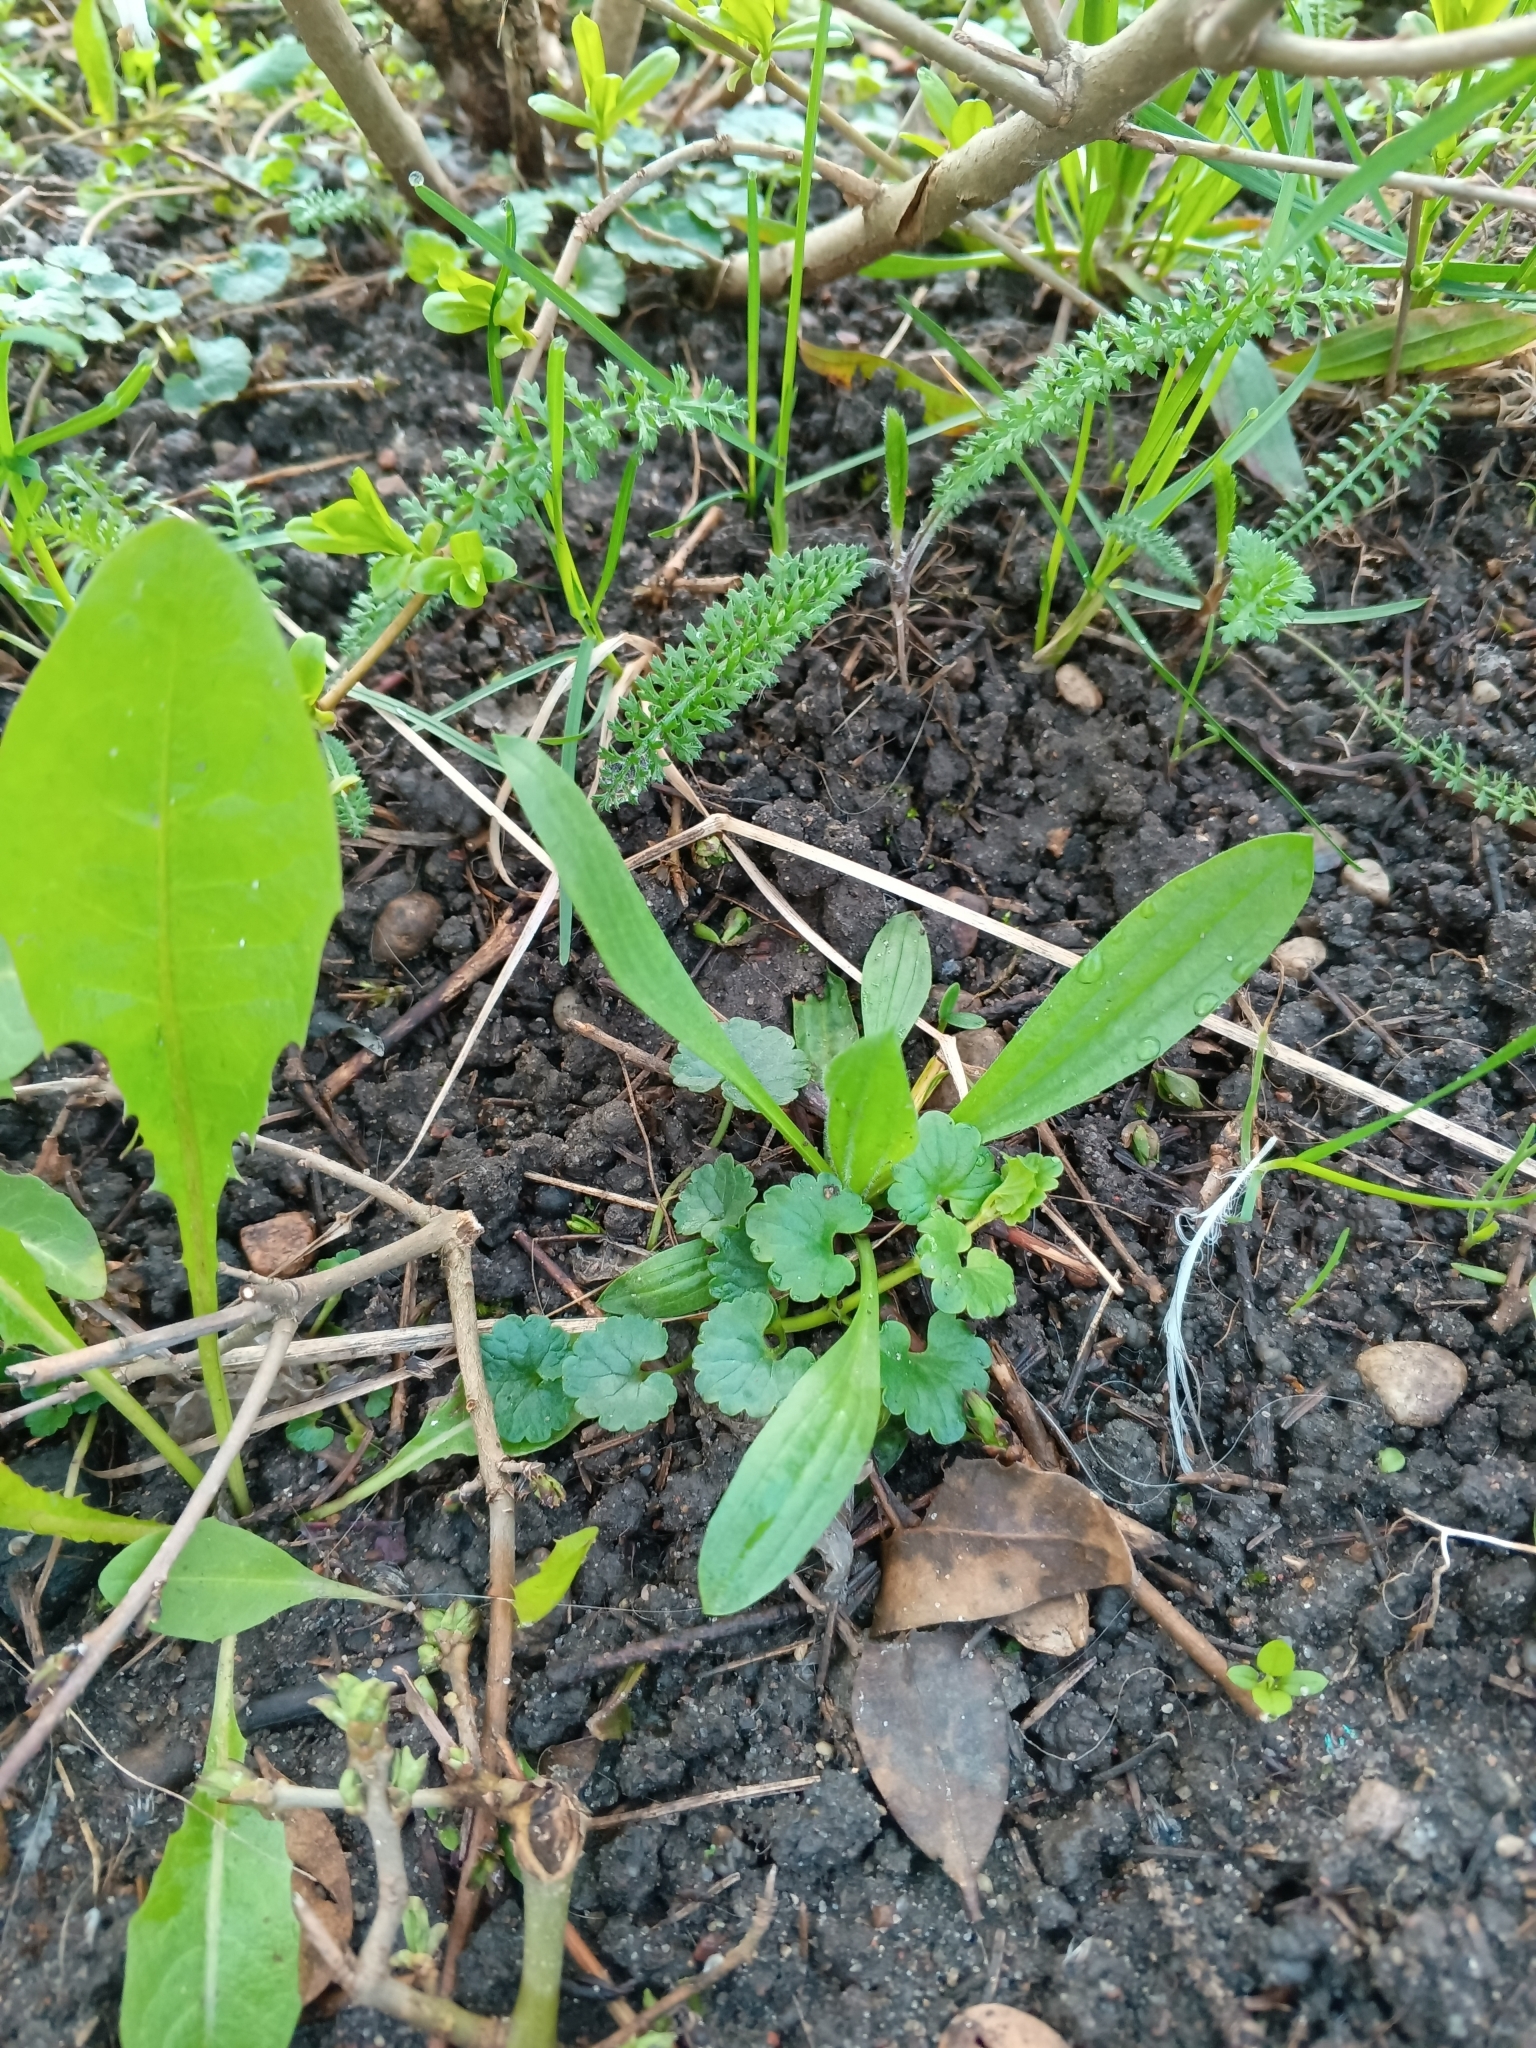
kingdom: Plantae
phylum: Tracheophyta
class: Magnoliopsida
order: Lamiales
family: Plantaginaceae
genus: Plantago
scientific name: Plantago lanceolata
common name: Ribwort plantain
